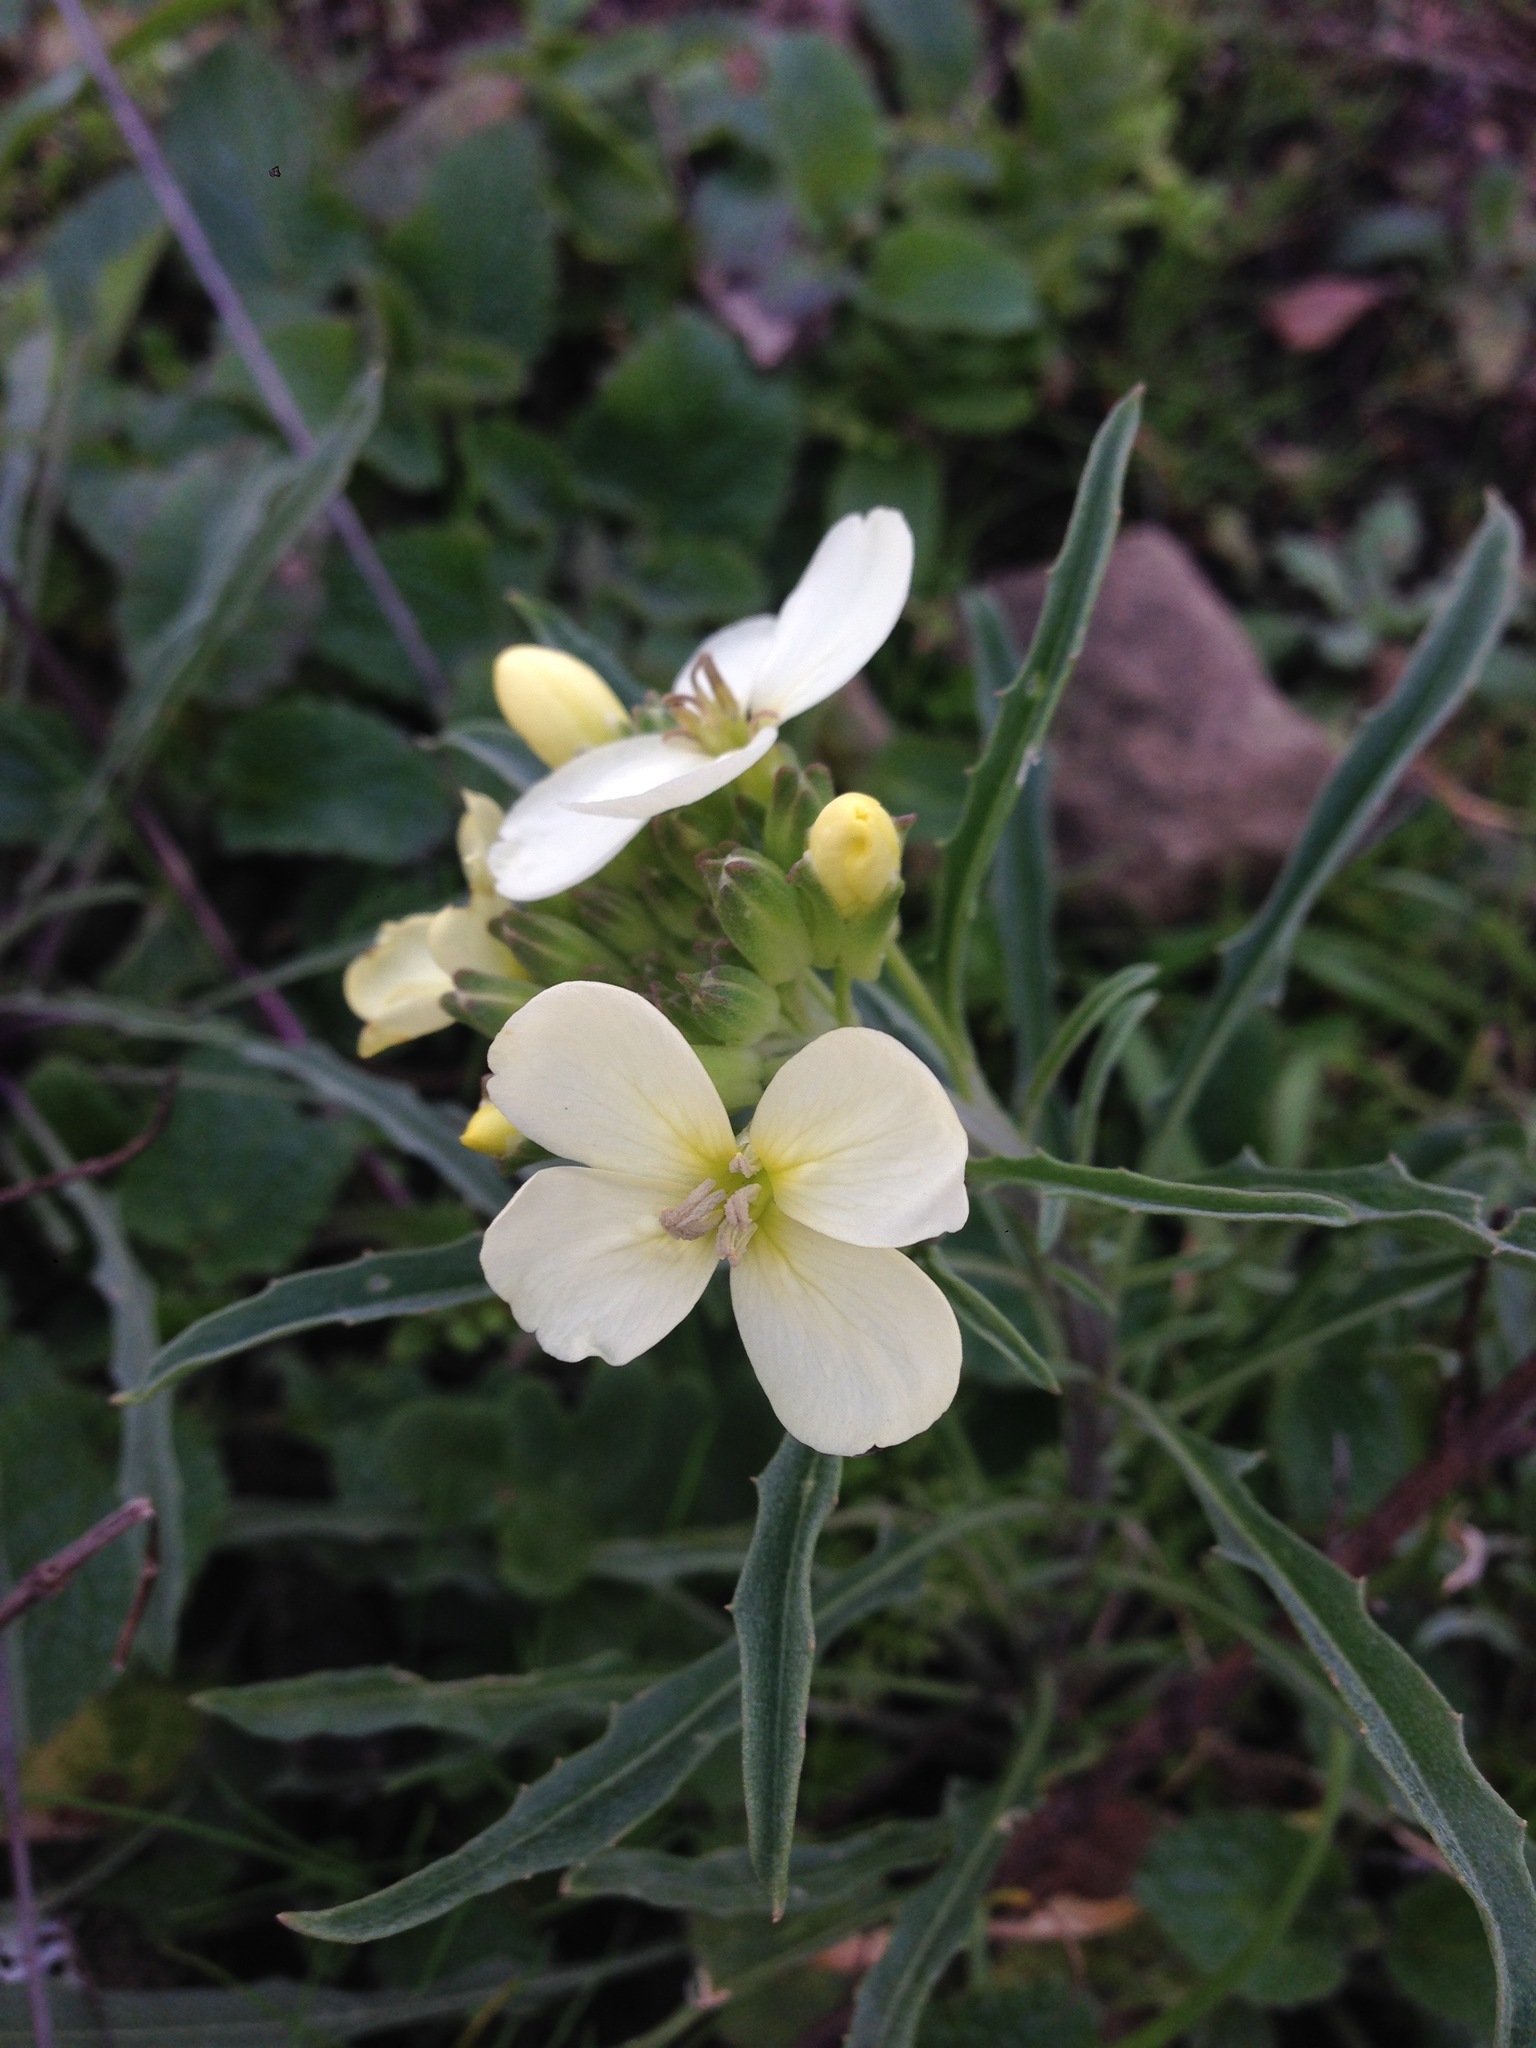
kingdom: Plantae
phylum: Tracheophyta
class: Magnoliopsida
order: Brassicales
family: Brassicaceae
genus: Erysimum
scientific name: Erysimum franciscanum
